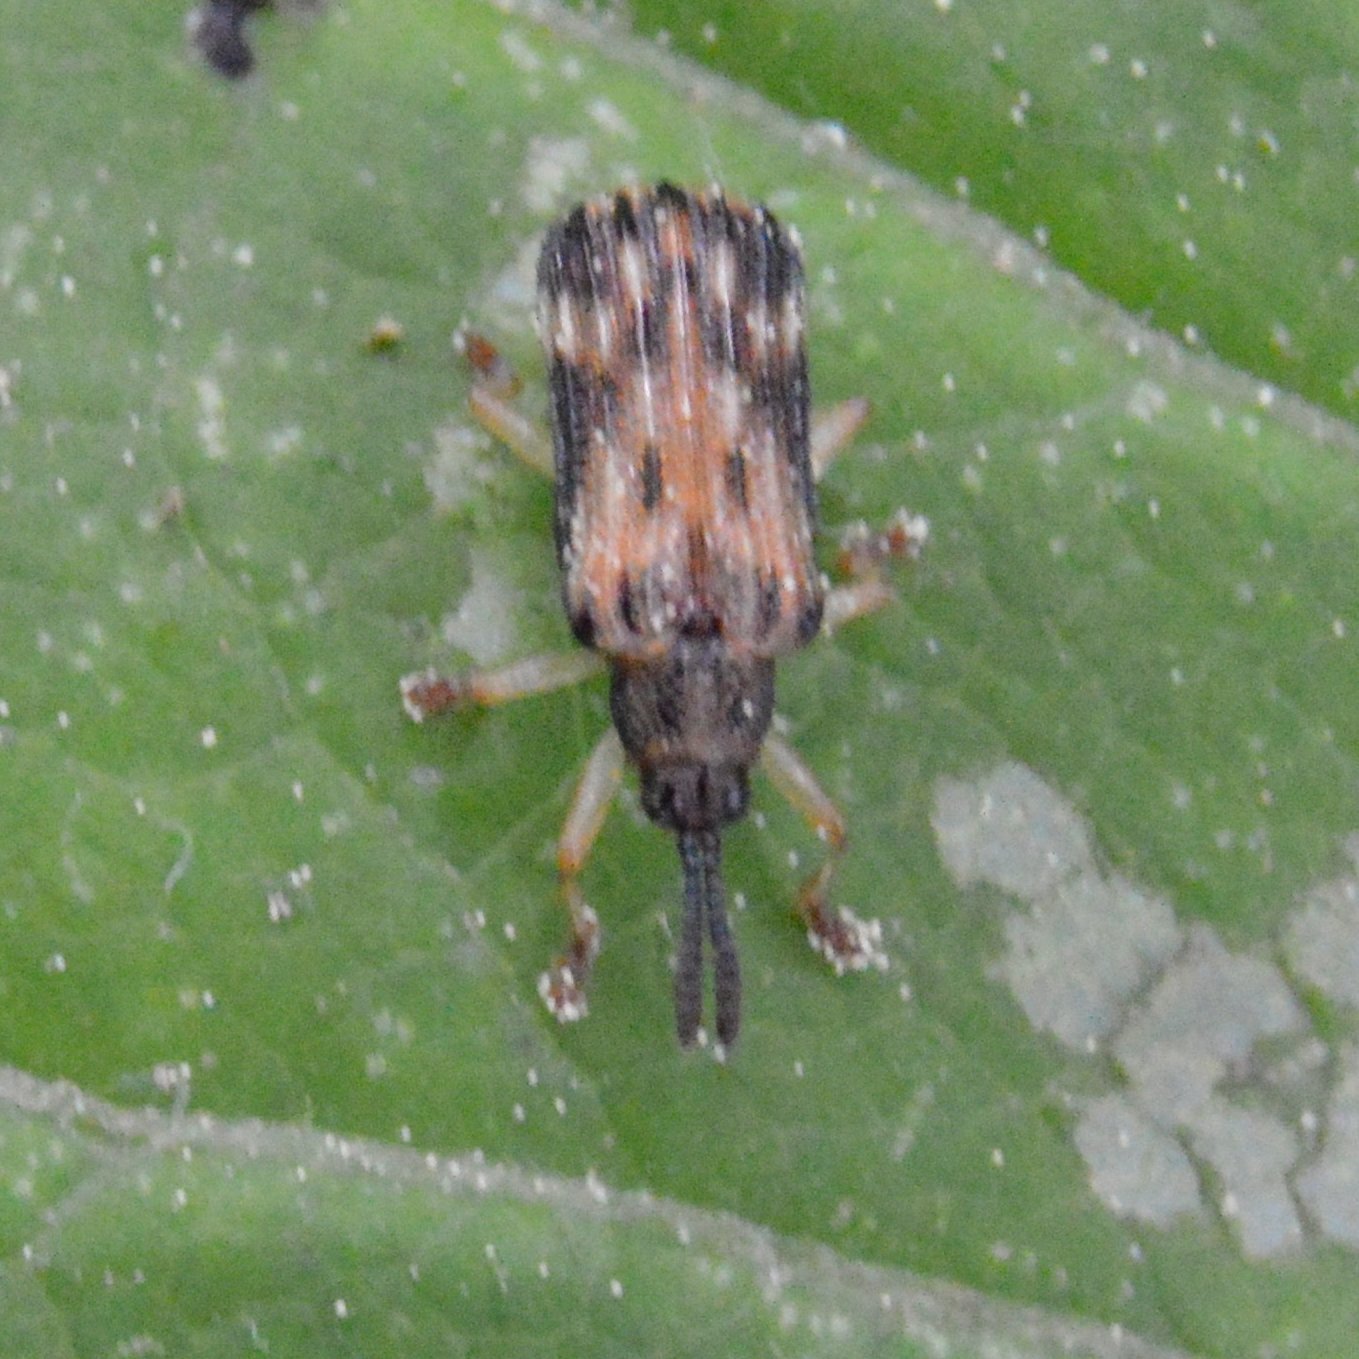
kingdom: Animalia
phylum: Arthropoda
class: Insecta
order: Coleoptera
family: Chrysomelidae
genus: Sumitrosis
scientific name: Sumitrosis inaequalis
